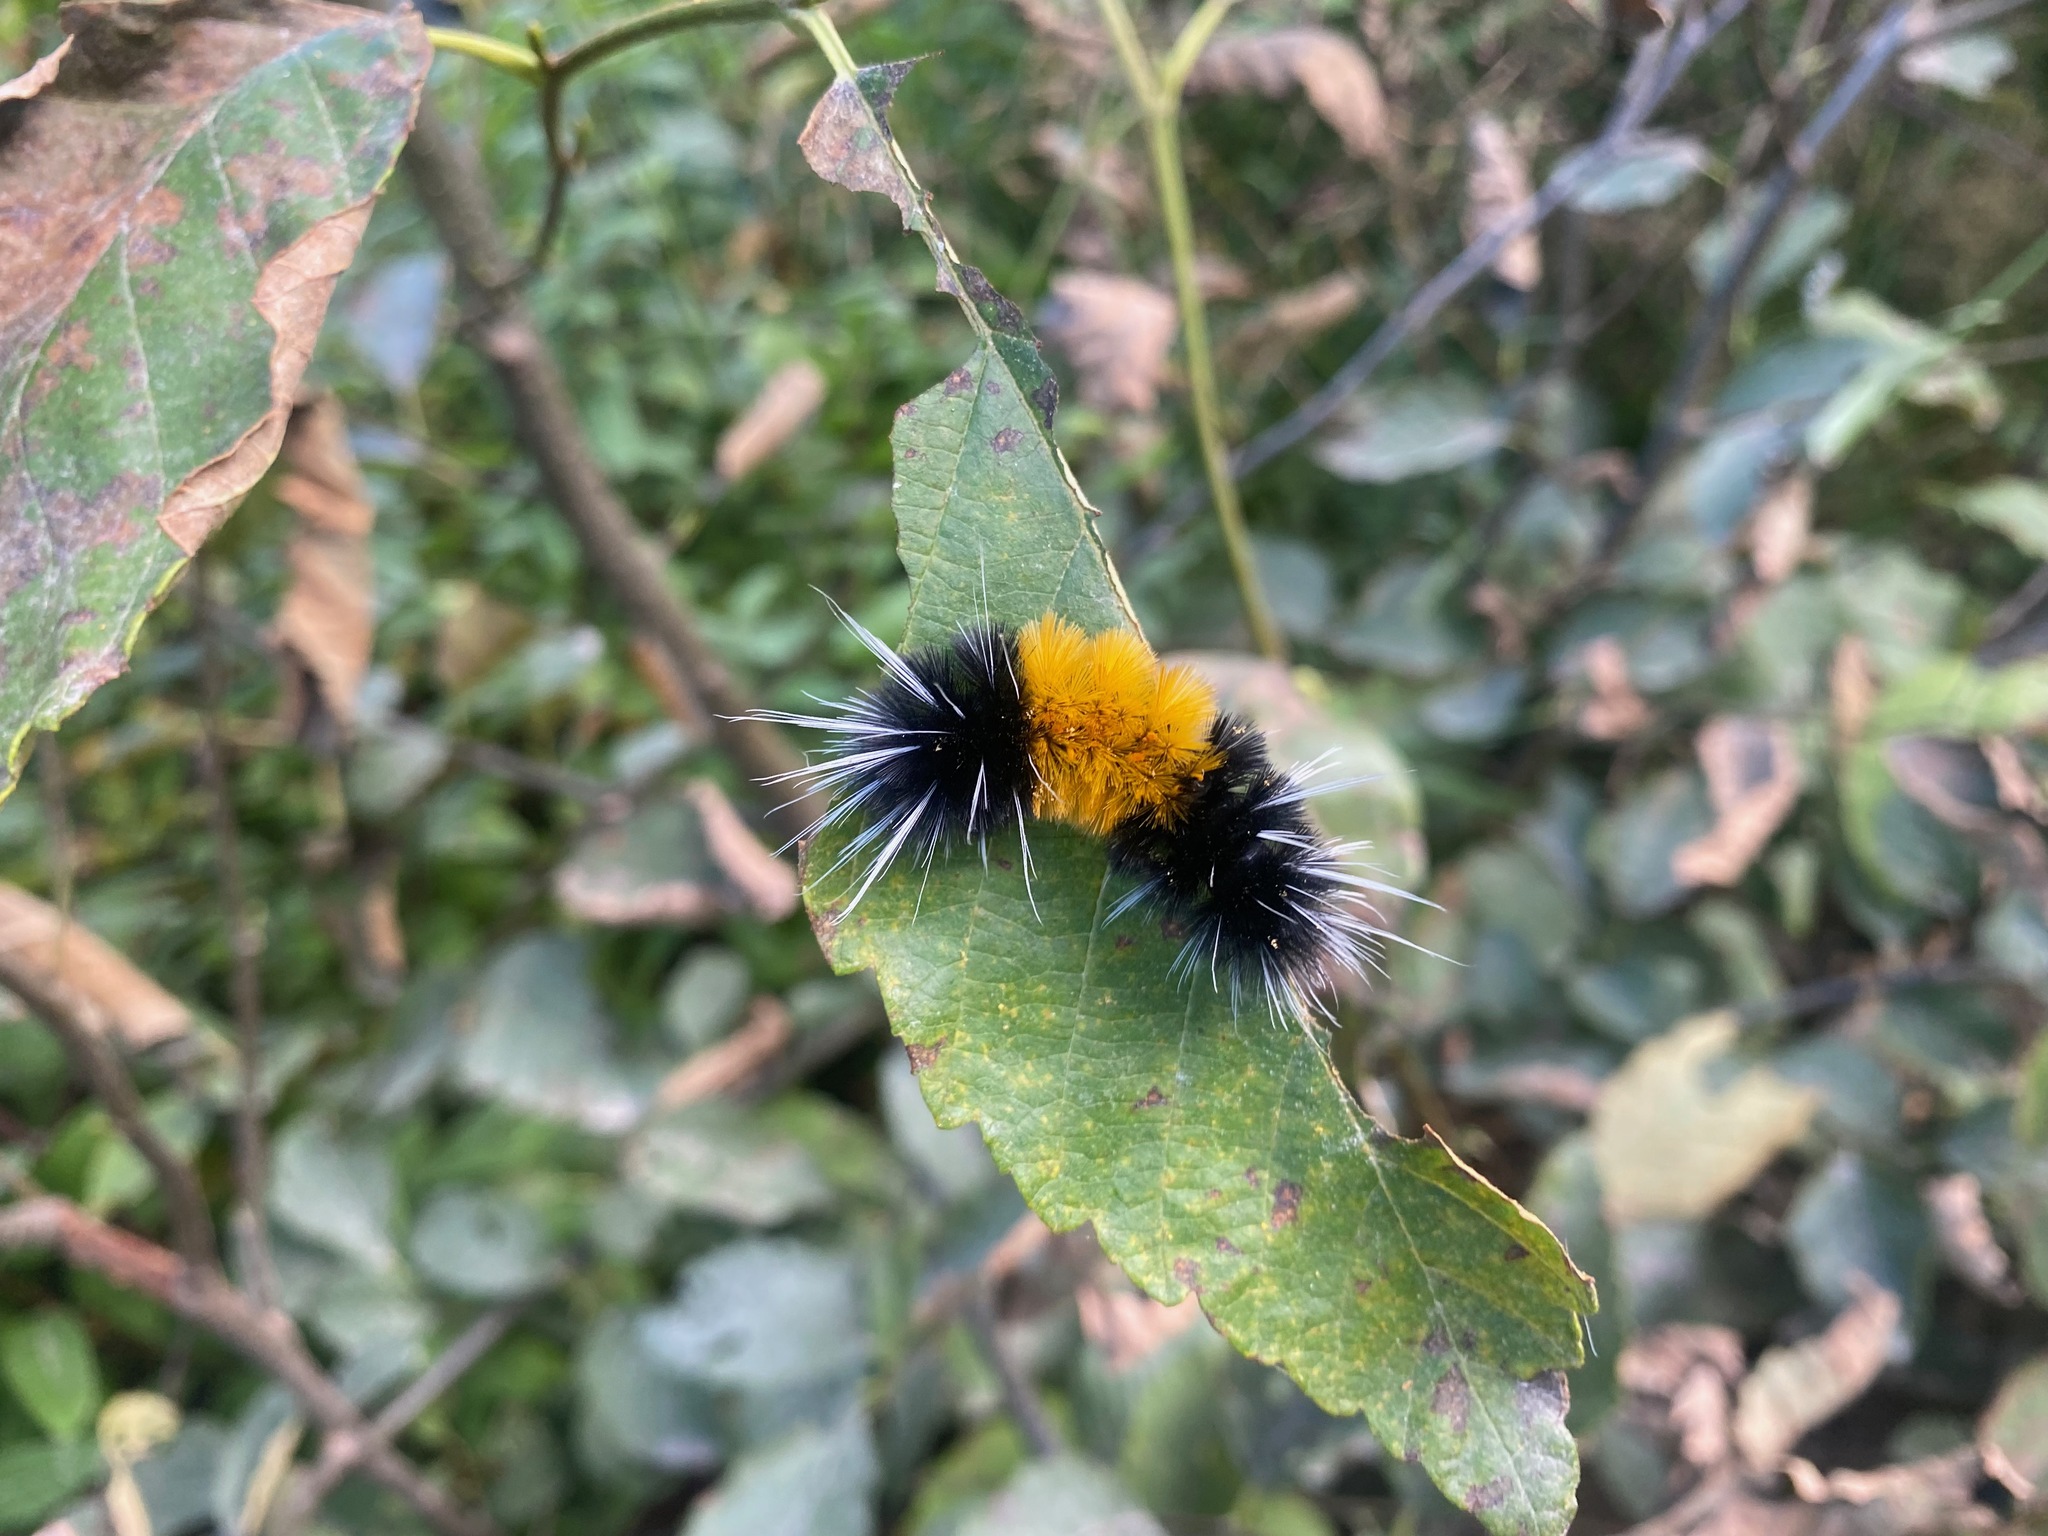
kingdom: Animalia
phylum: Arthropoda
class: Insecta
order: Lepidoptera
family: Erebidae
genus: Lophocampa
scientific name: Lophocampa maculata
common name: Spotted tussock moth
